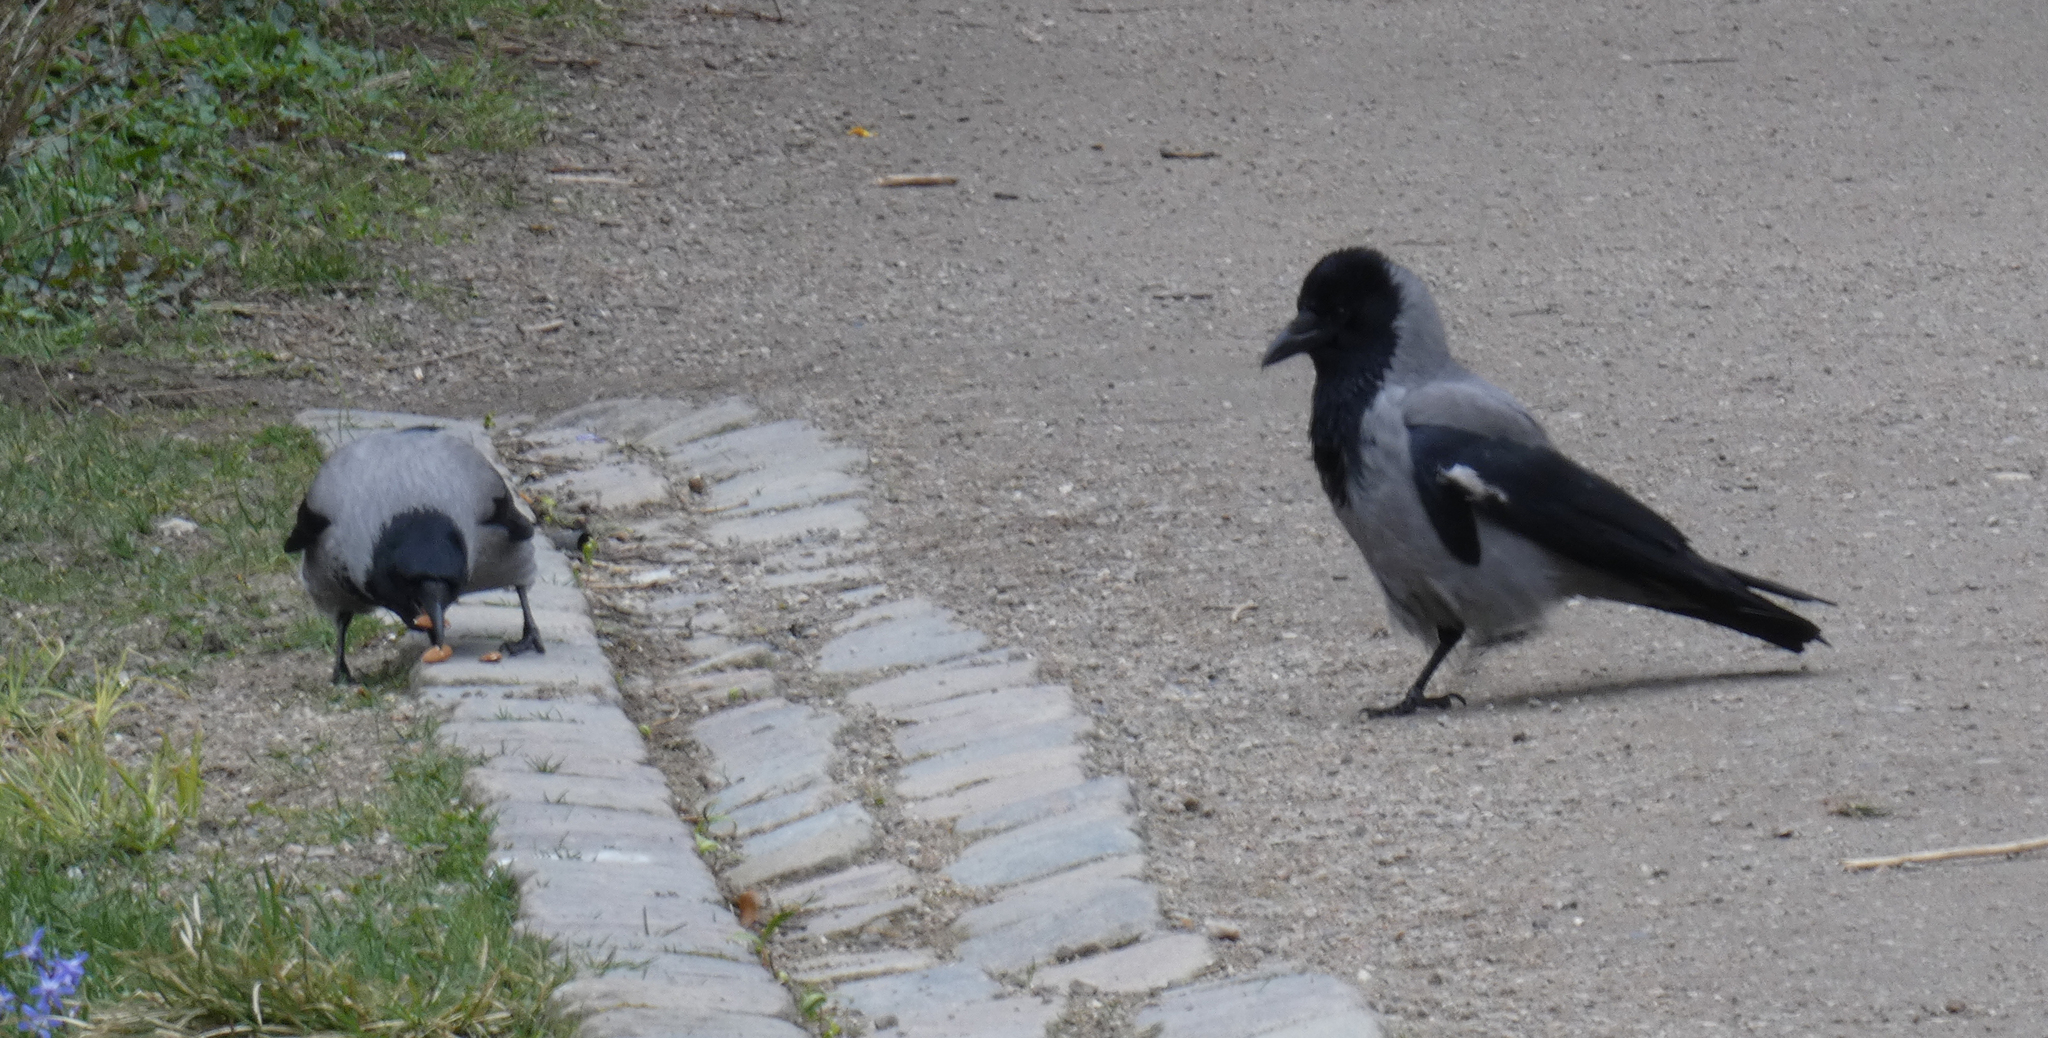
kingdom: Animalia
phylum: Chordata
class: Aves
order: Passeriformes
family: Corvidae
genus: Corvus
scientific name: Corvus cornix
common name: Hooded crow
